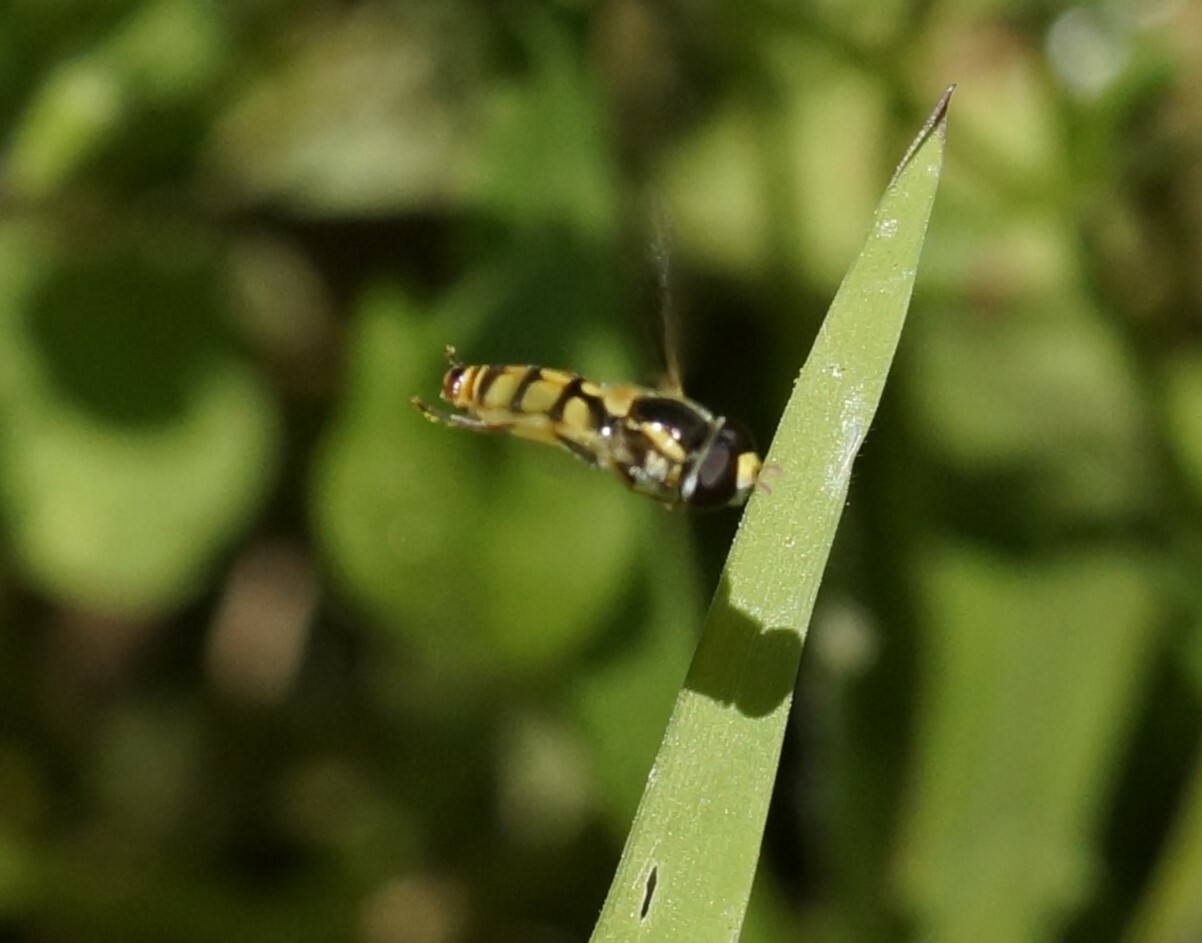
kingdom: Animalia
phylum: Arthropoda
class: Insecta
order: Diptera
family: Syrphidae
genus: Simosyrphus
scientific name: Simosyrphus grandicornis
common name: Hoverfly
